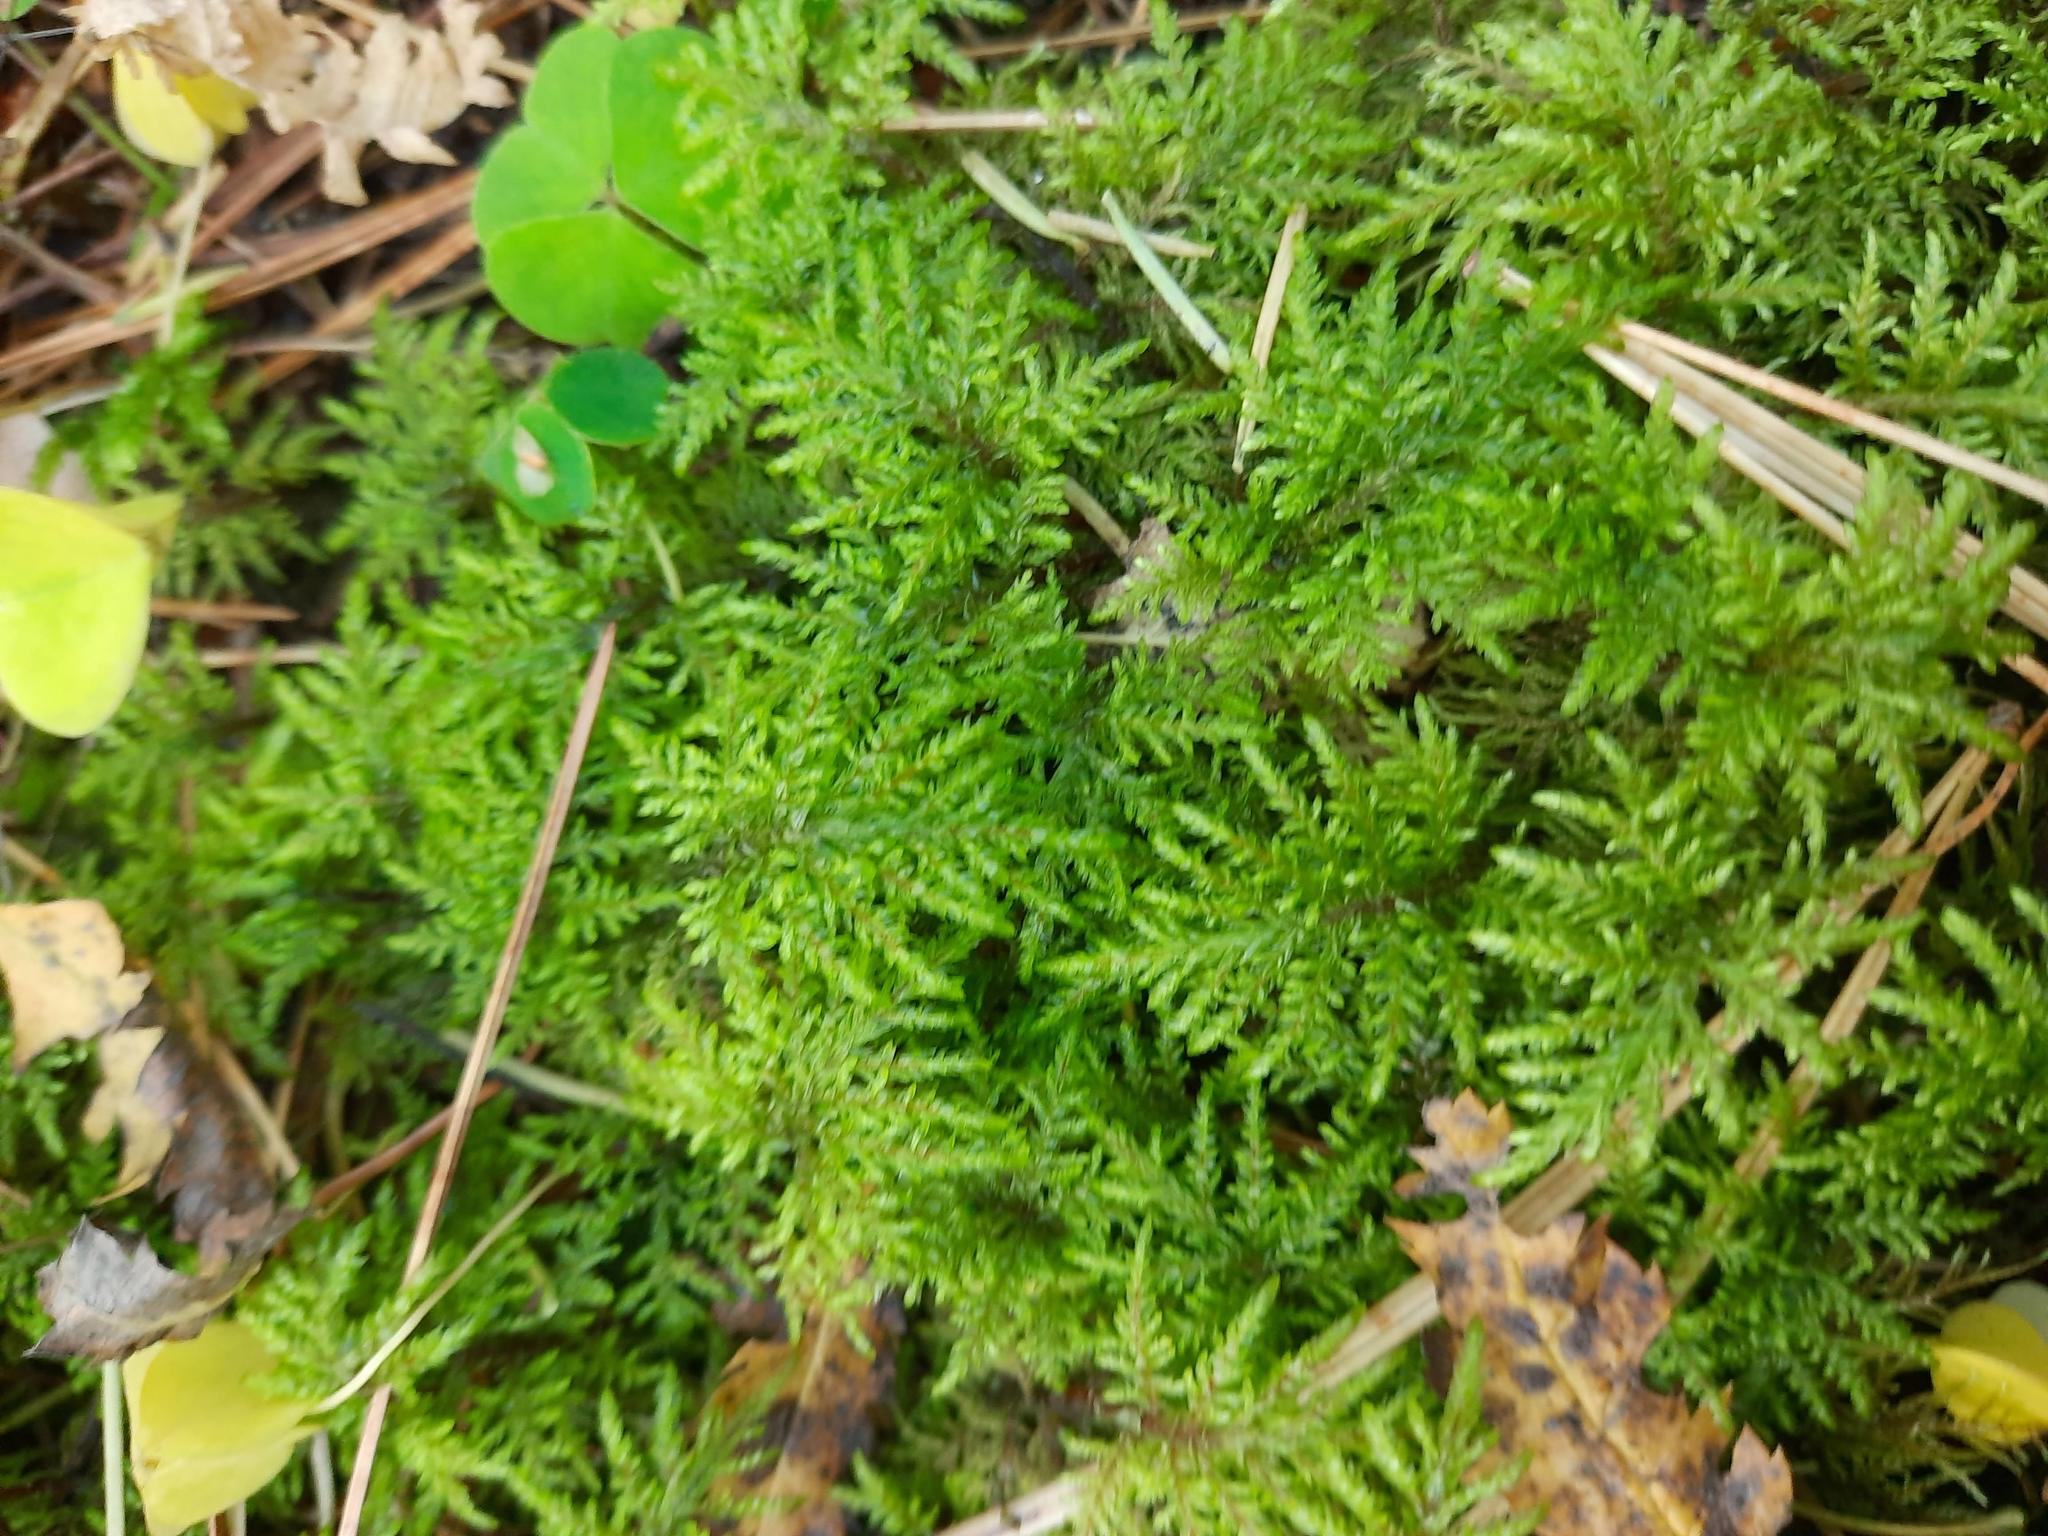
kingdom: Plantae
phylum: Bryophyta
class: Bryopsida
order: Hypnales
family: Hylocomiaceae
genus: Hylocomium
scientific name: Hylocomium splendens
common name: Stairstep moss
